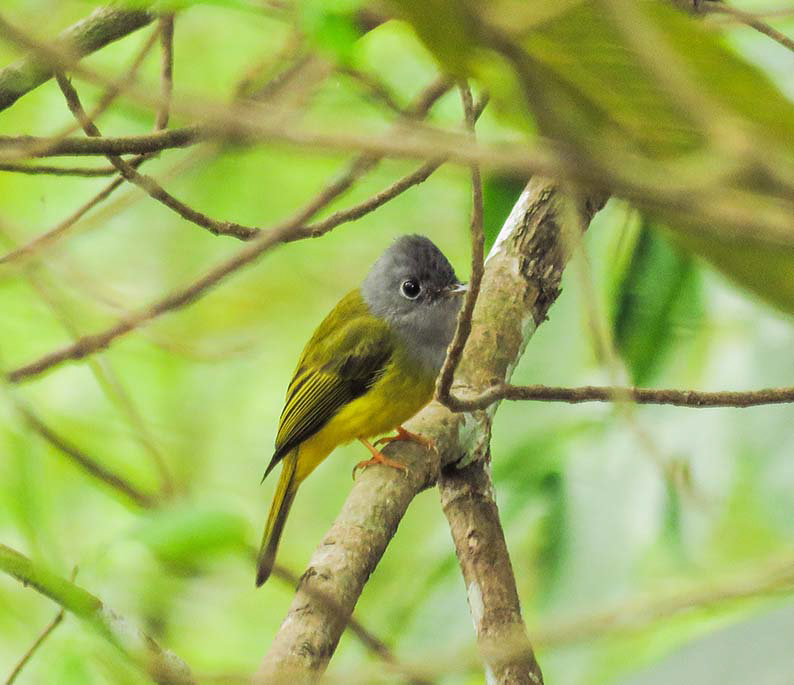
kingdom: Animalia
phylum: Chordata
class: Aves
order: Passeriformes
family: Stenostiridae
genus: Culicicapa
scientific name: Culicicapa ceylonensis
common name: Grey-headed canary-flycatcher
